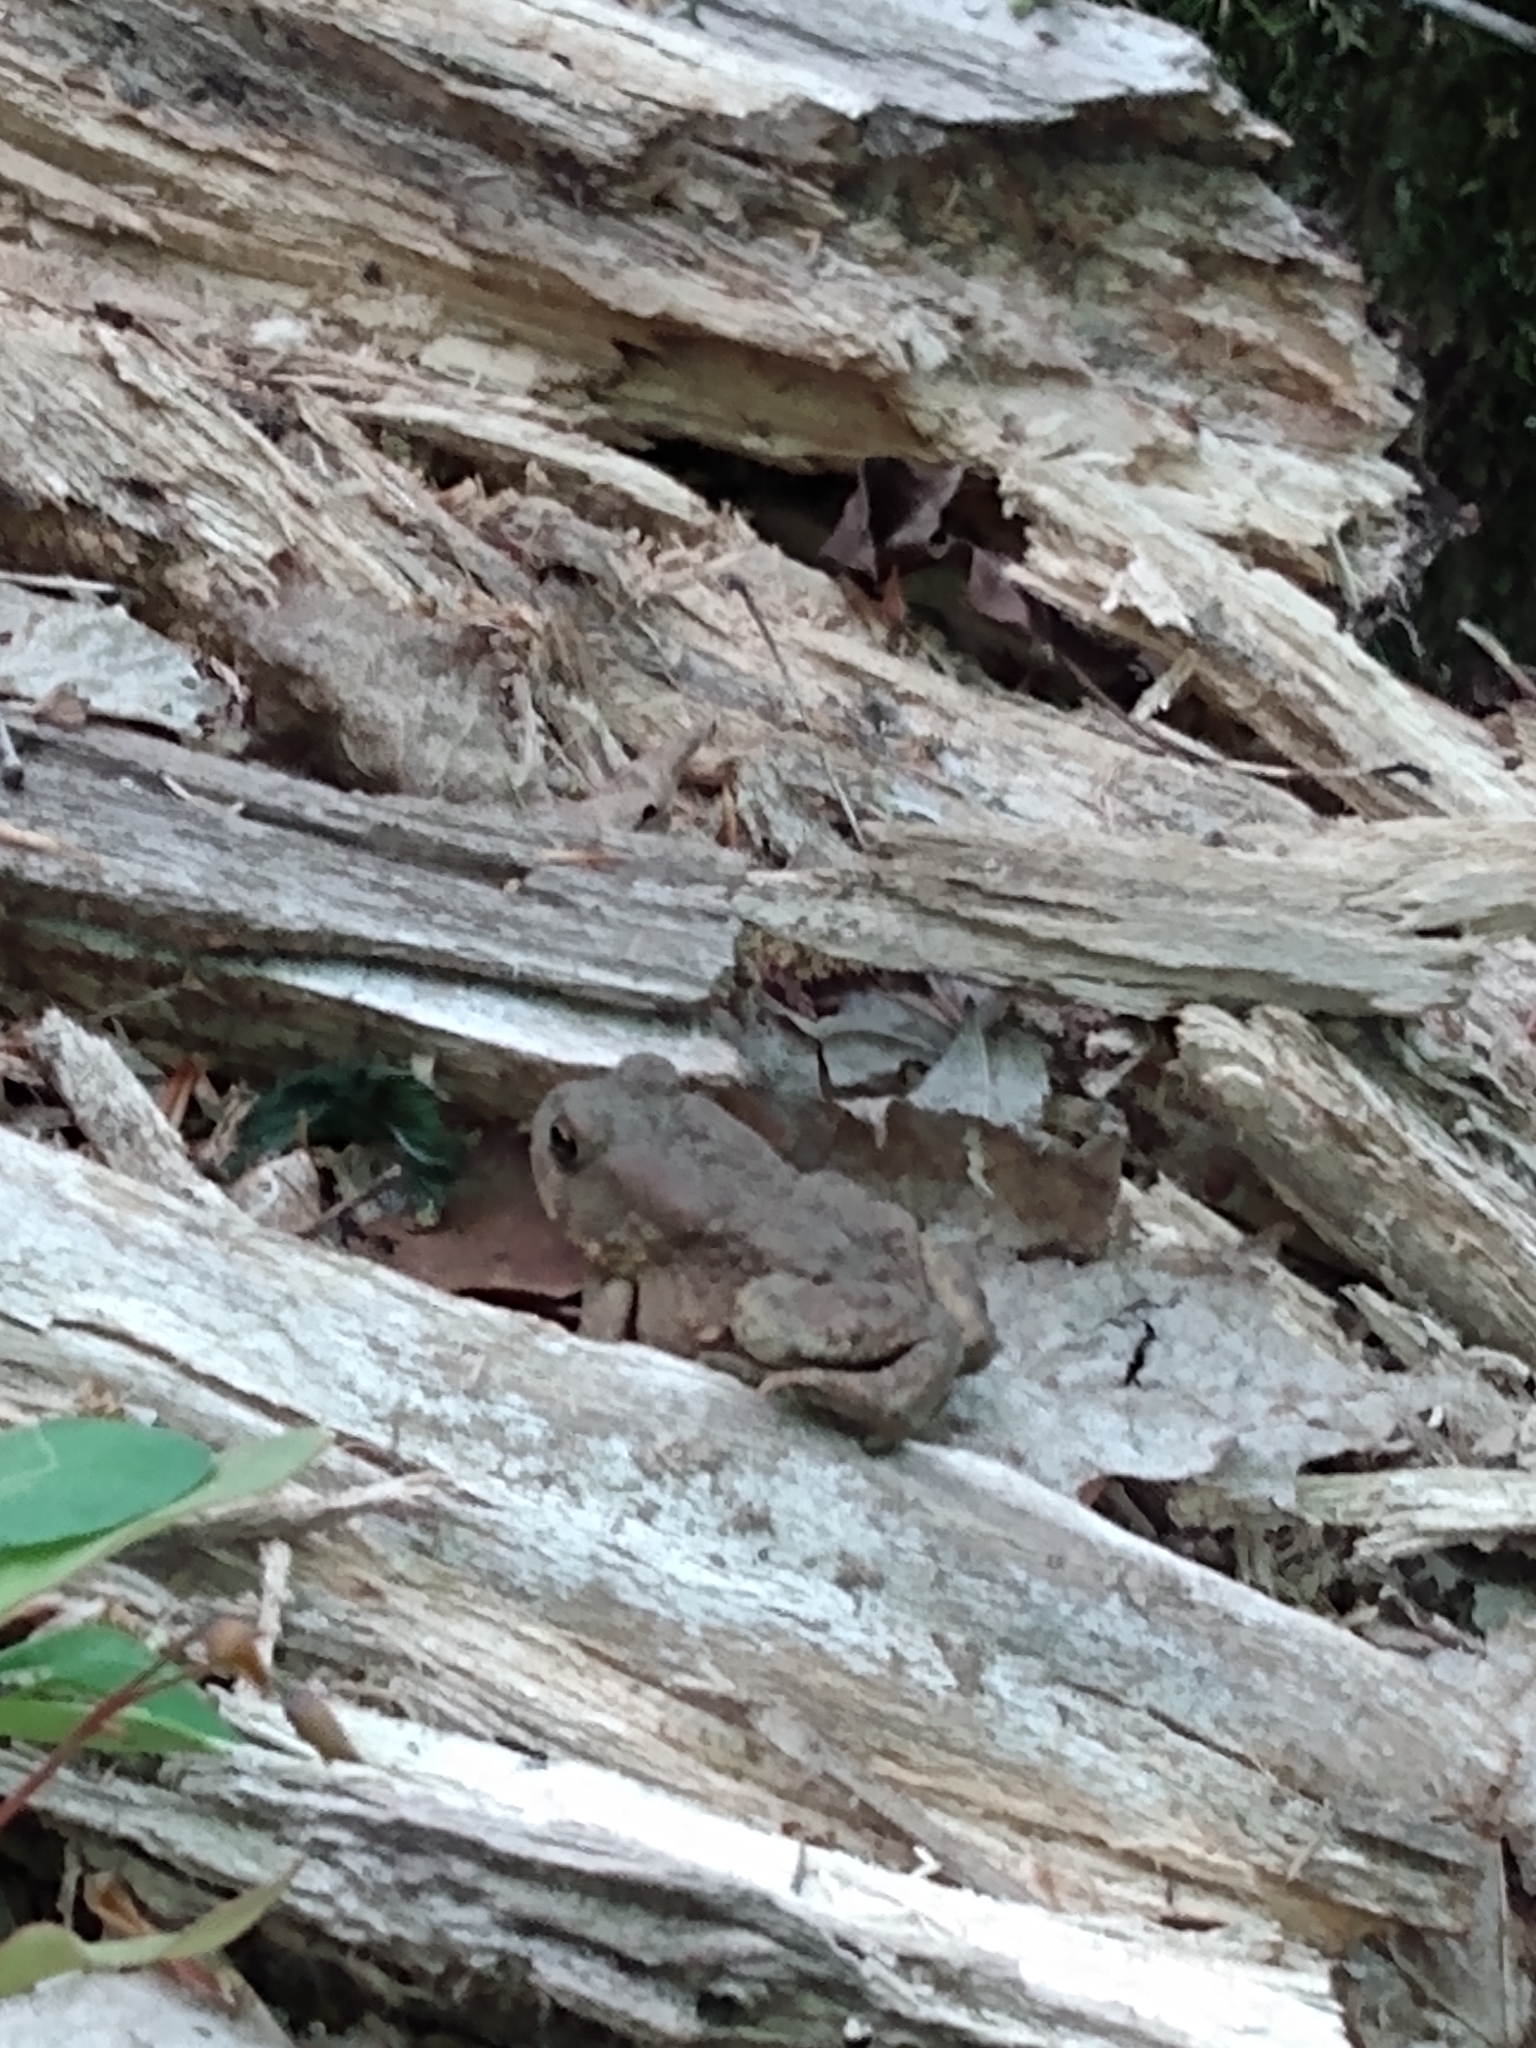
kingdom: Animalia
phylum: Chordata
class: Amphibia
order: Anura
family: Bufonidae
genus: Anaxyrus
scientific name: Anaxyrus americanus
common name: American toad
